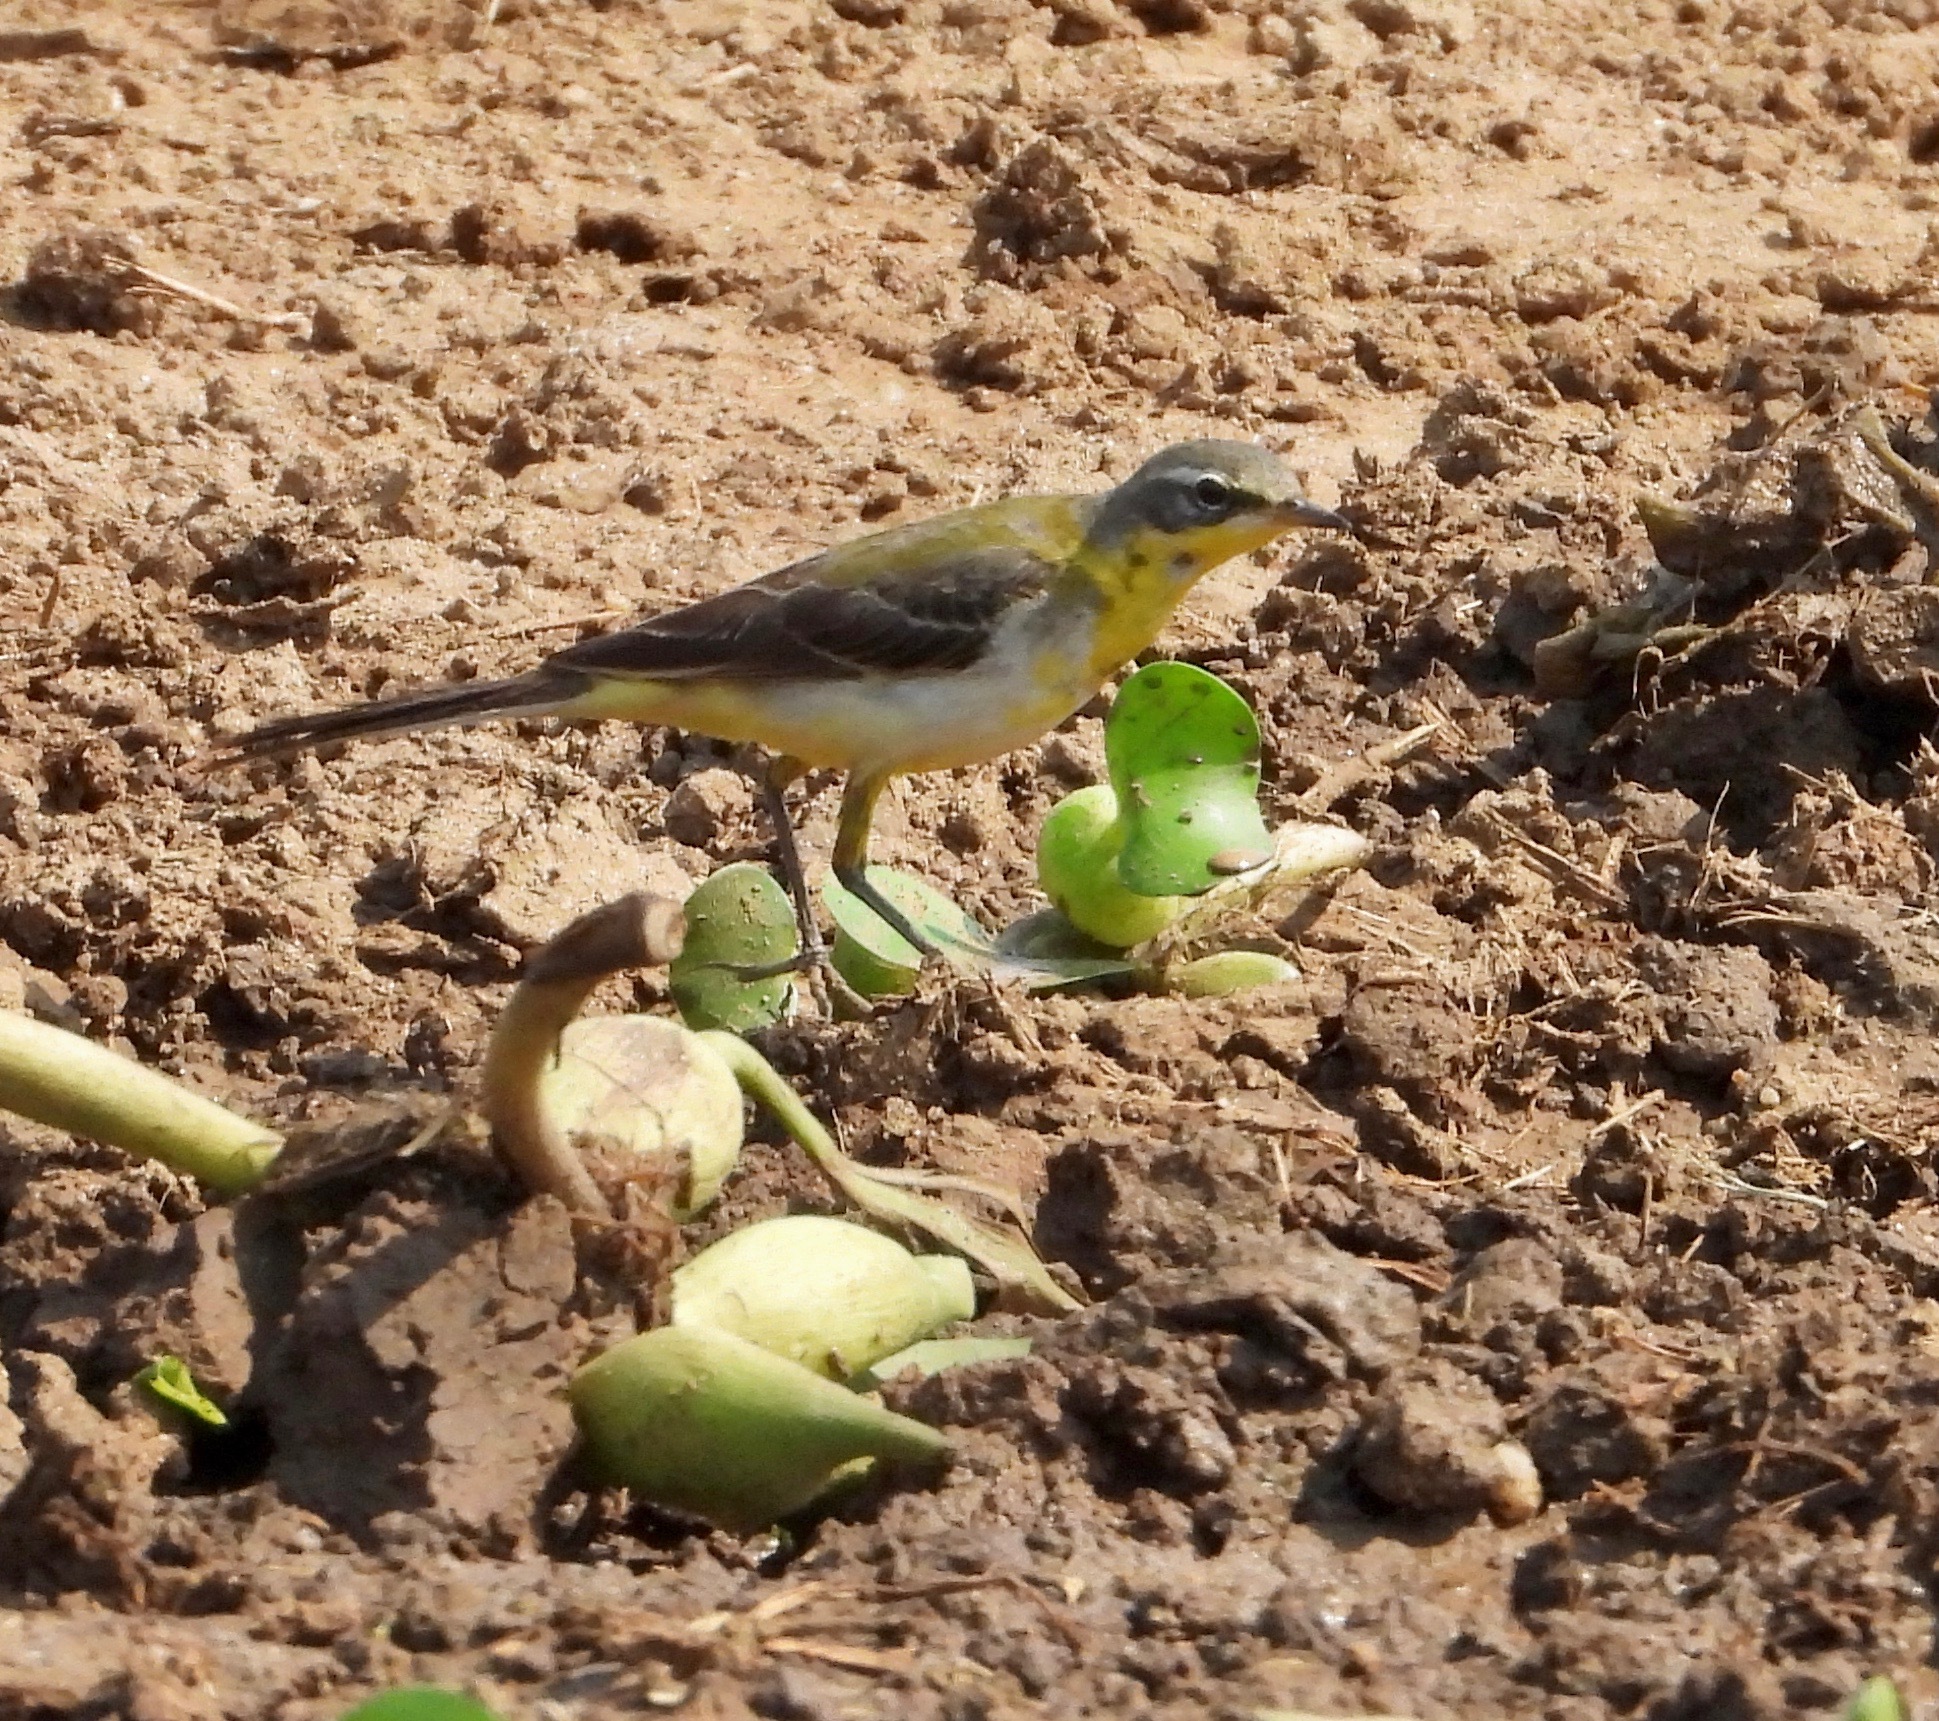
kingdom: Animalia
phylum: Chordata
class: Aves
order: Passeriformes
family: Motacillidae
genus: Motacilla
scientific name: Motacilla flava
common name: Western yellow wagtail
